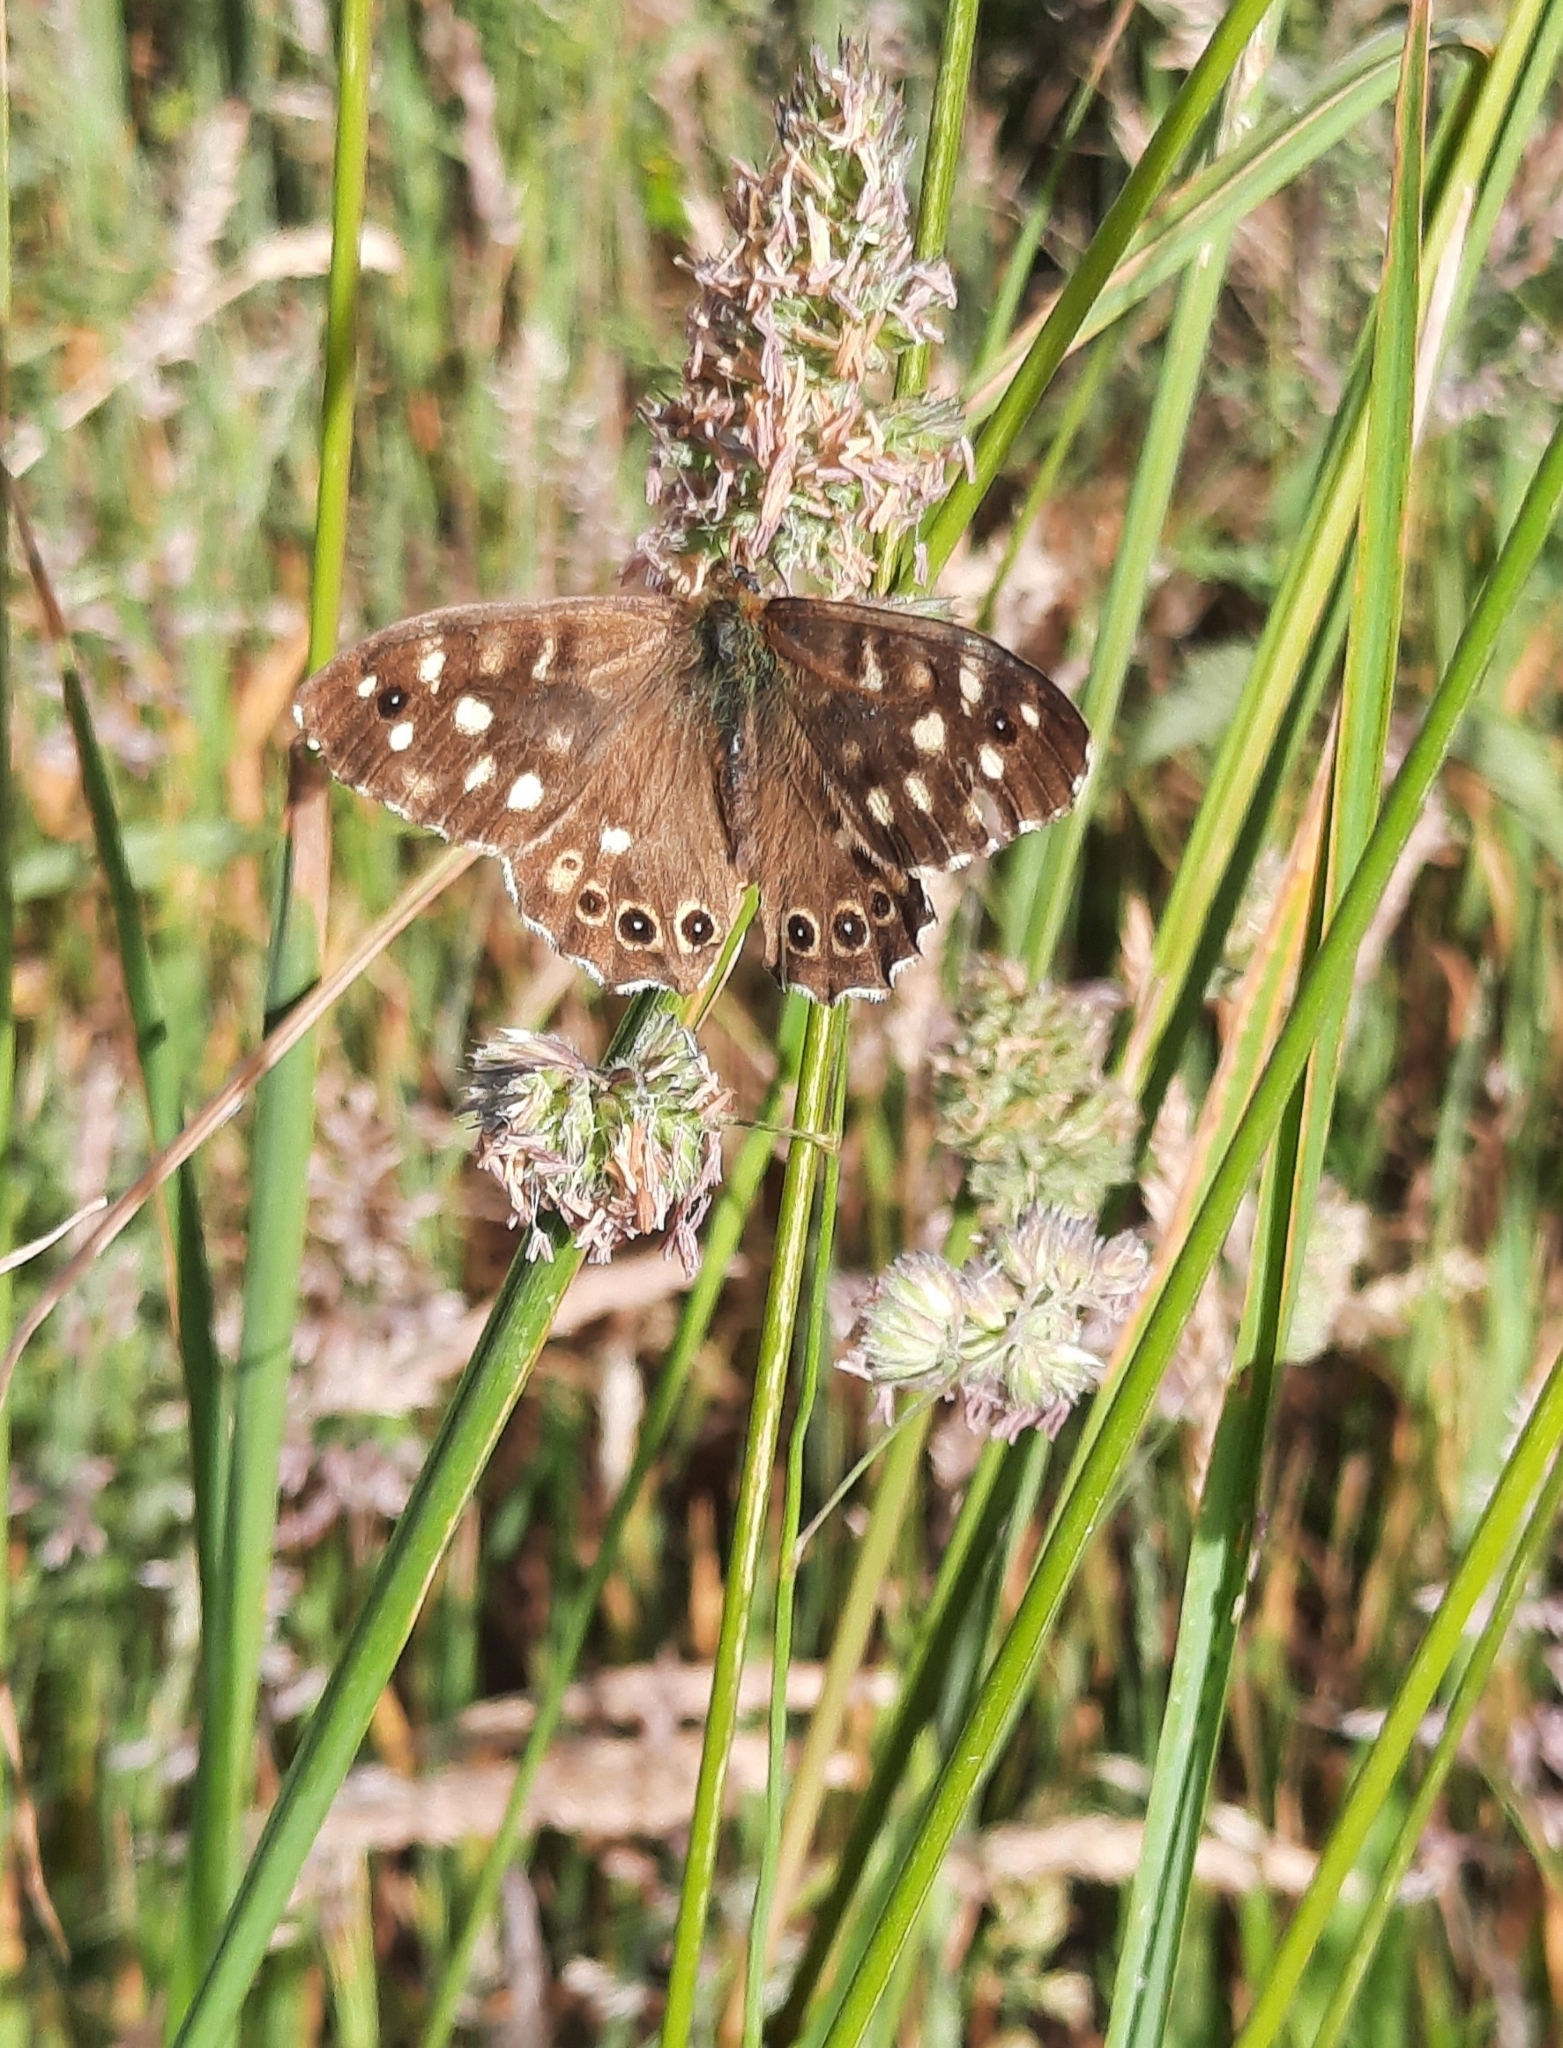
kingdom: Animalia
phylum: Arthropoda
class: Insecta
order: Lepidoptera
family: Nymphalidae
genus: Pararge
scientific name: Pararge aegeria
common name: Speckled wood
